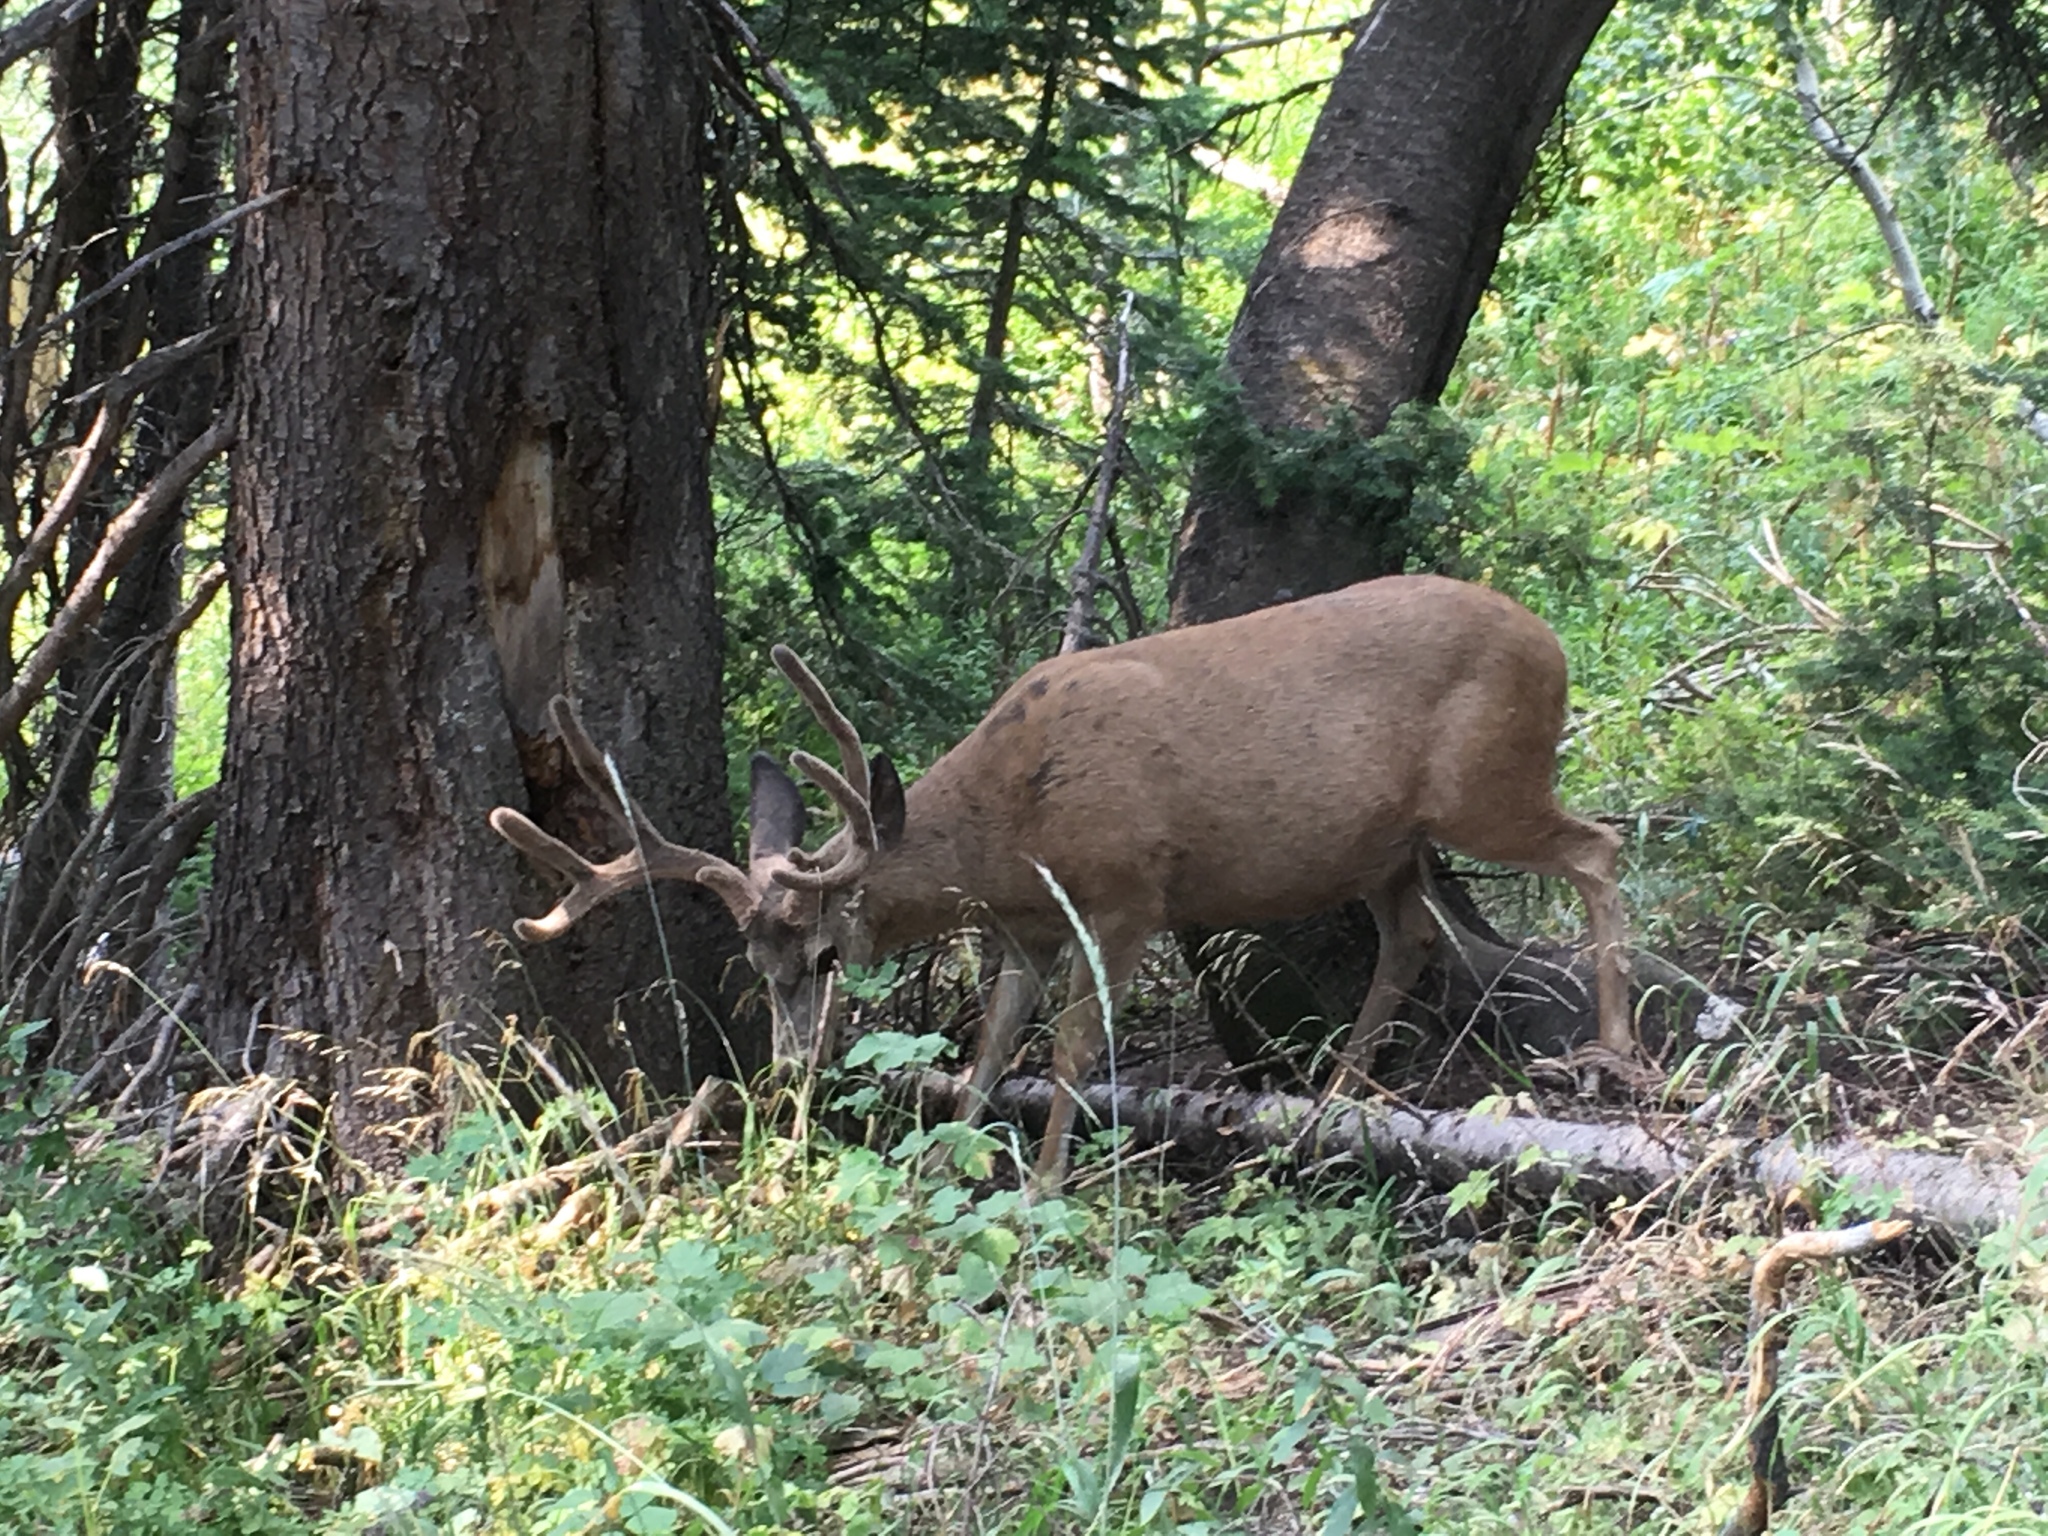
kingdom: Animalia
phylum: Chordata
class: Mammalia
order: Artiodactyla
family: Cervidae
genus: Odocoileus
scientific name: Odocoileus hemionus
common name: Mule deer
